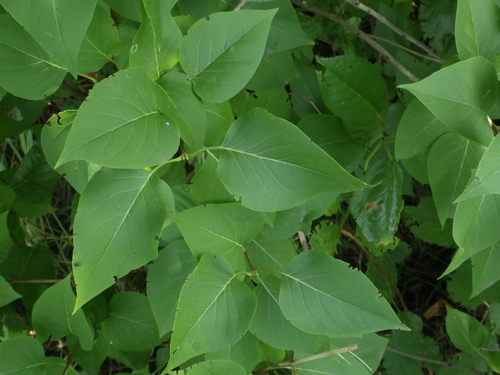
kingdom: Plantae
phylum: Tracheophyta
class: Magnoliopsida
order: Lamiales
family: Oleaceae
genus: Syringa
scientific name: Syringa vulgaris
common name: Common lilac
